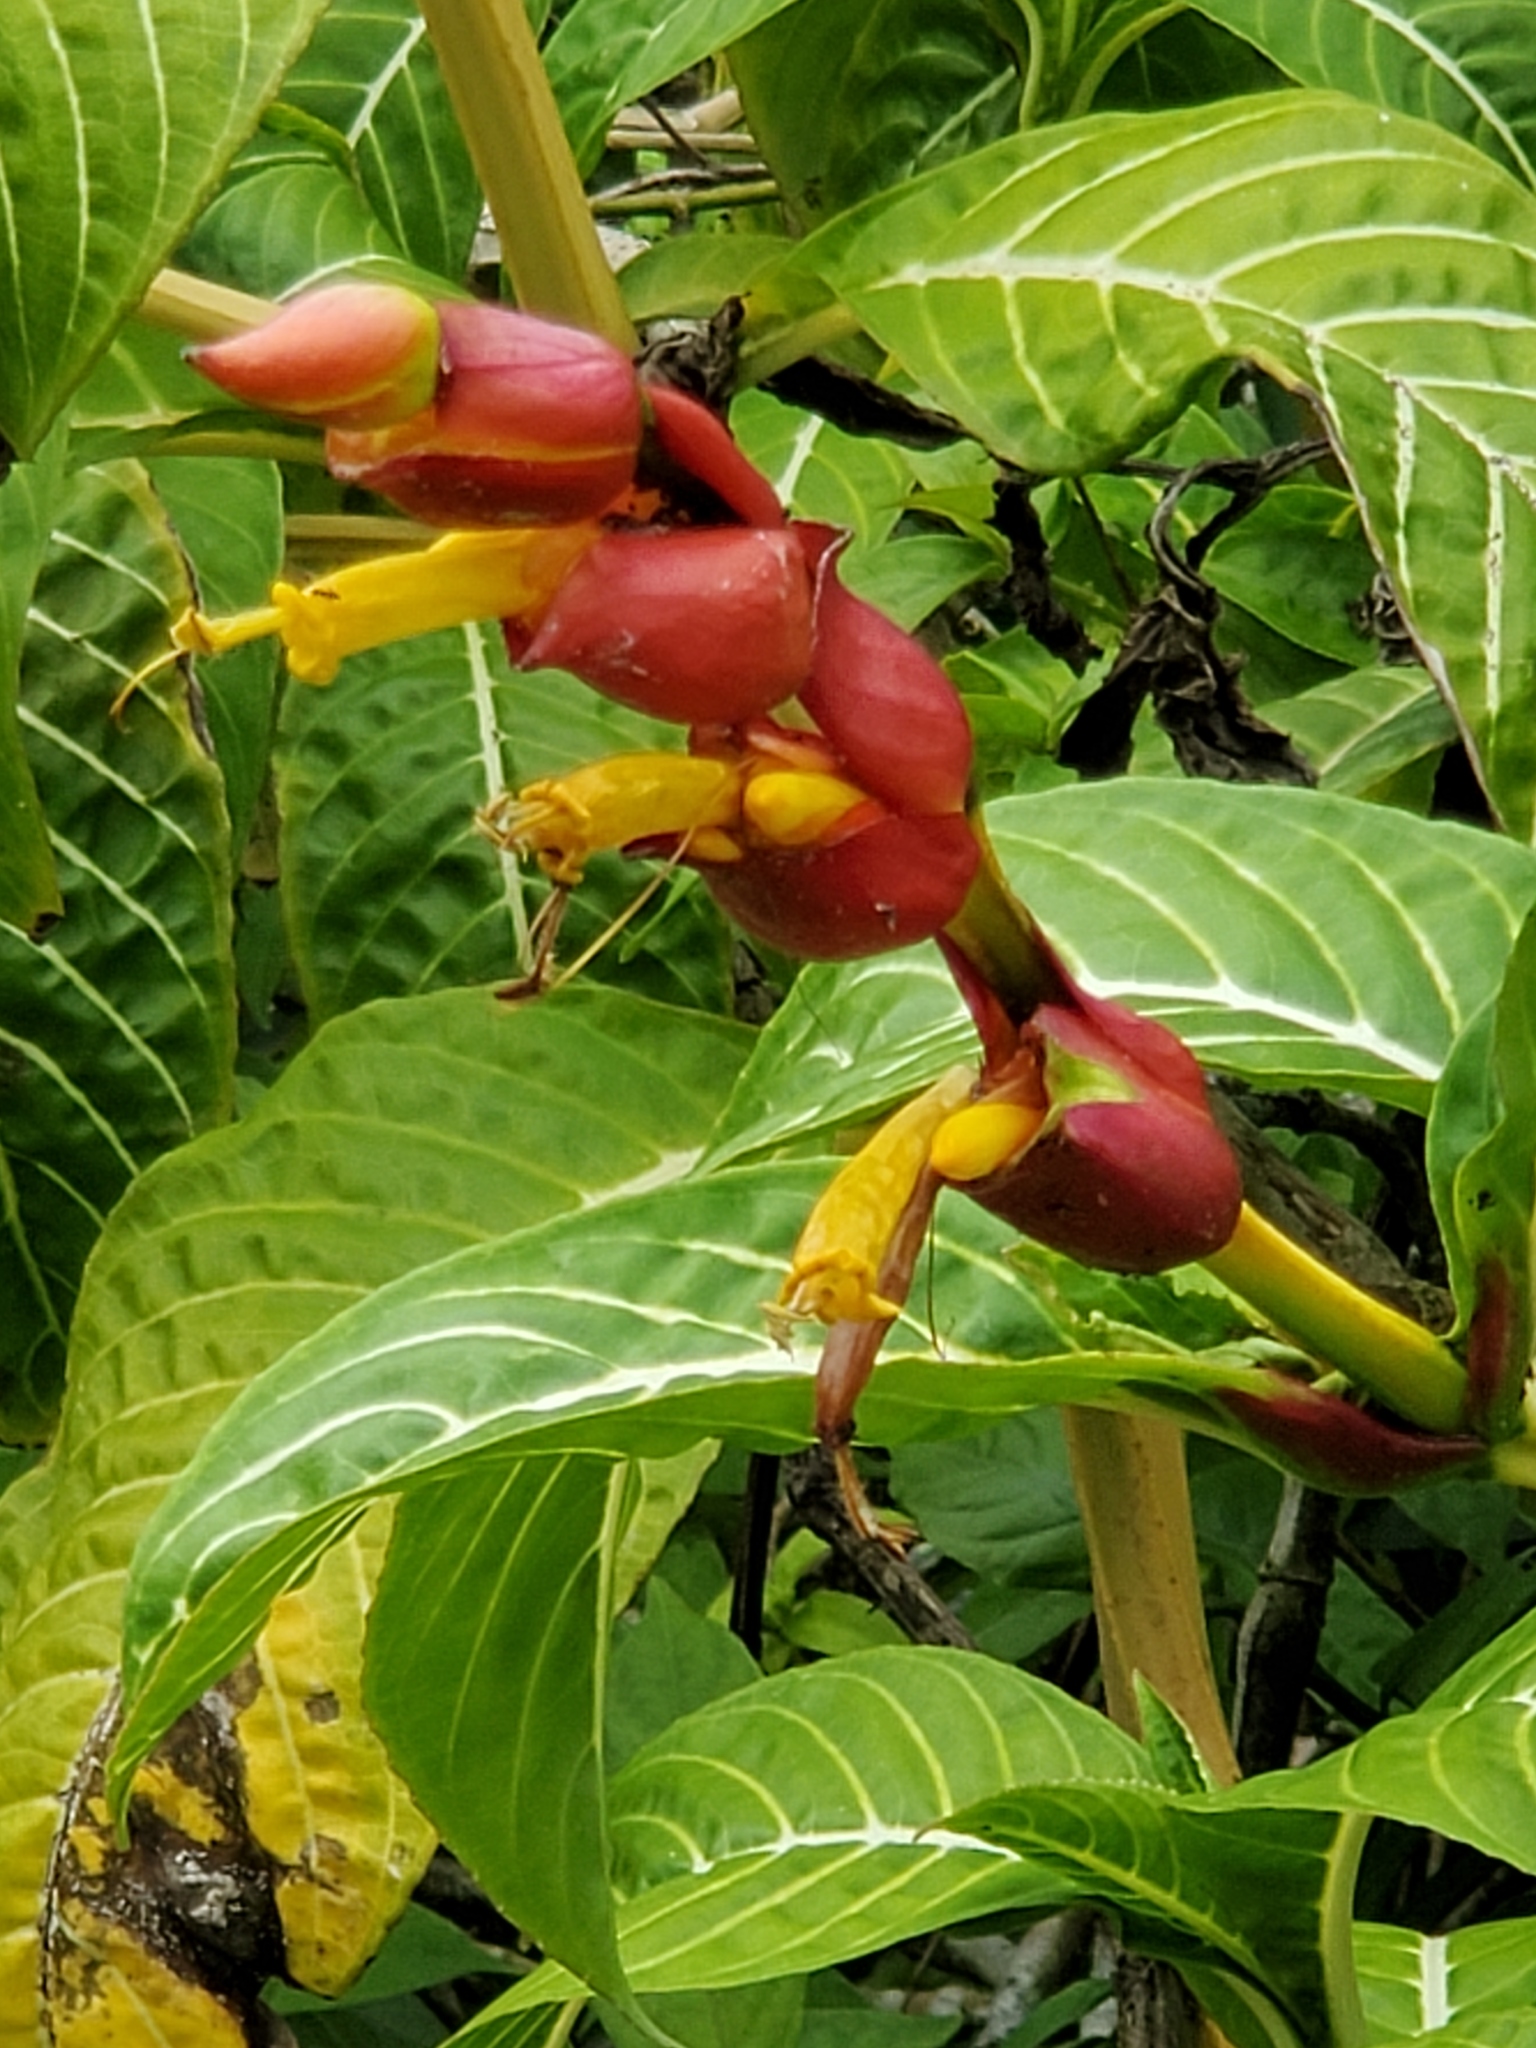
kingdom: Plantae
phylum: Tracheophyta
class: Magnoliopsida
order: Lamiales
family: Acanthaceae
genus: Sanchezia
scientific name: Sanchezia oblonga
